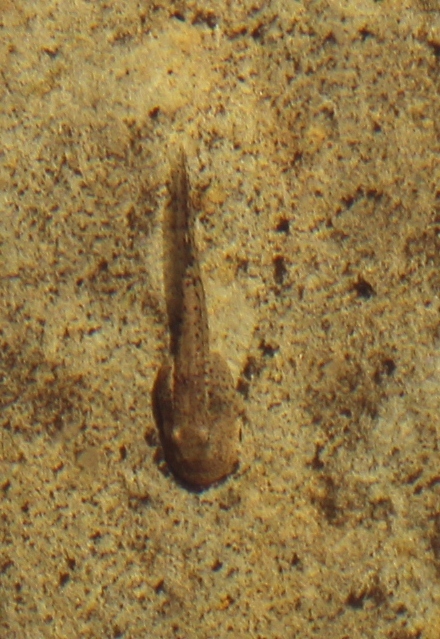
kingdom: Animalia
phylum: Chordata
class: Amphibia
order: Anura
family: Heleophrynidae
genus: Heleophryne
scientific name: Heleophryne purcelli
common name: Purcell's ghost frog
